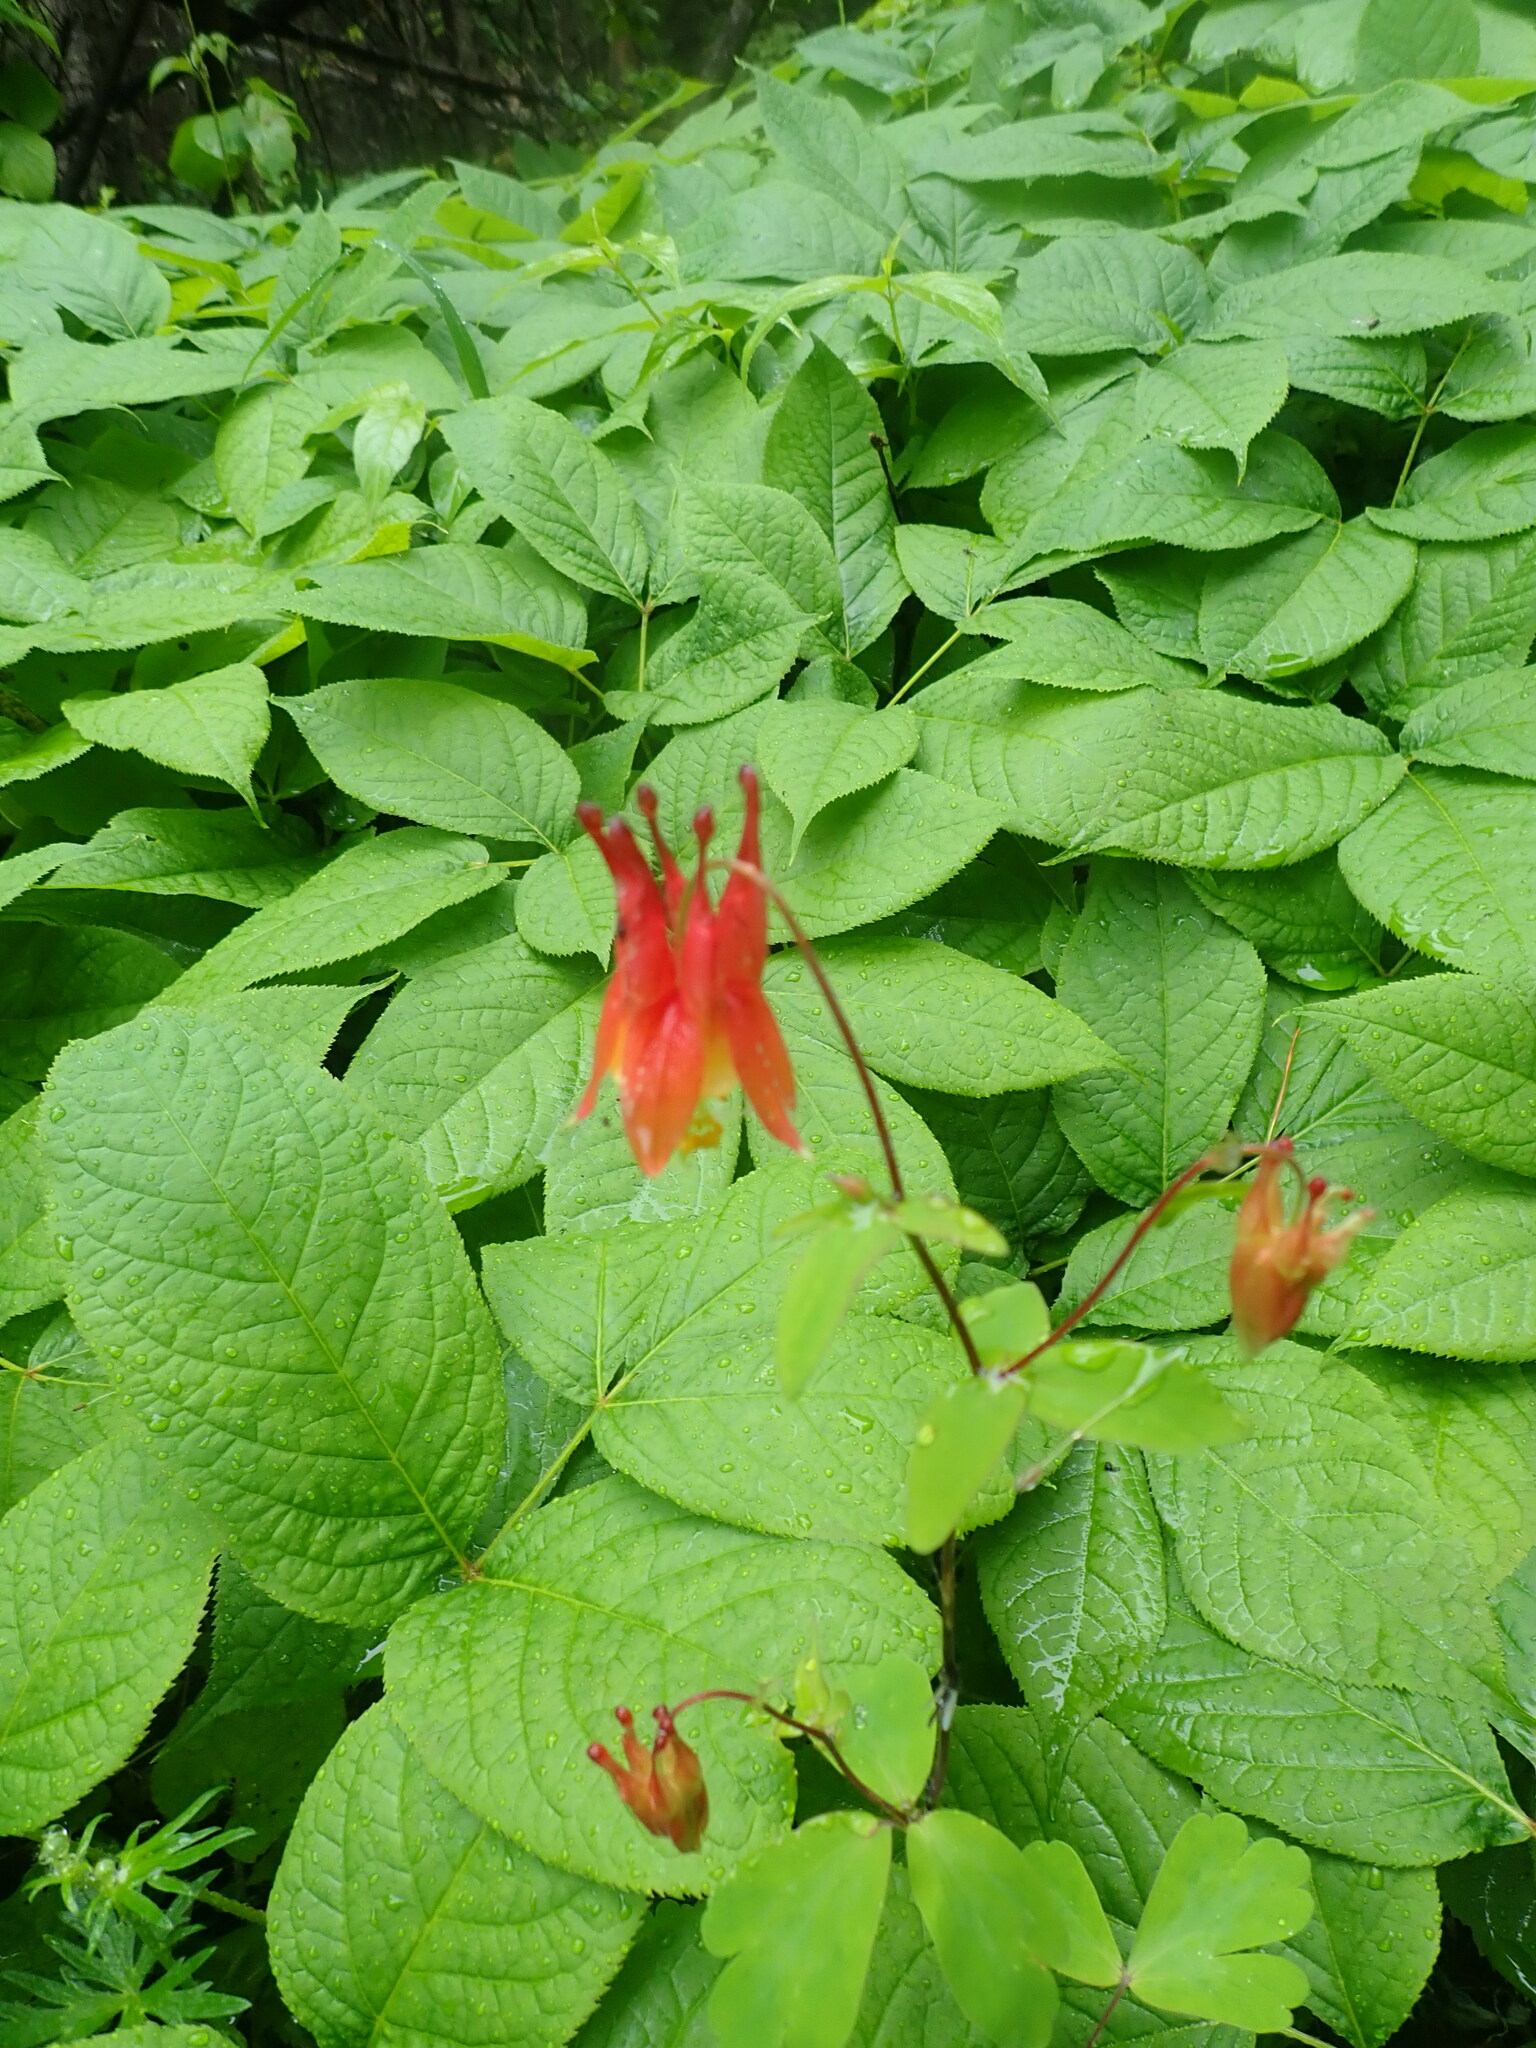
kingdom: Plantae
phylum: Tracheophyta
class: Magnoliopsida
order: Ranunculales
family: Ranunculaceae
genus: Aquilegia
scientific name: Aquilegia canadensis
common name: American columbine
